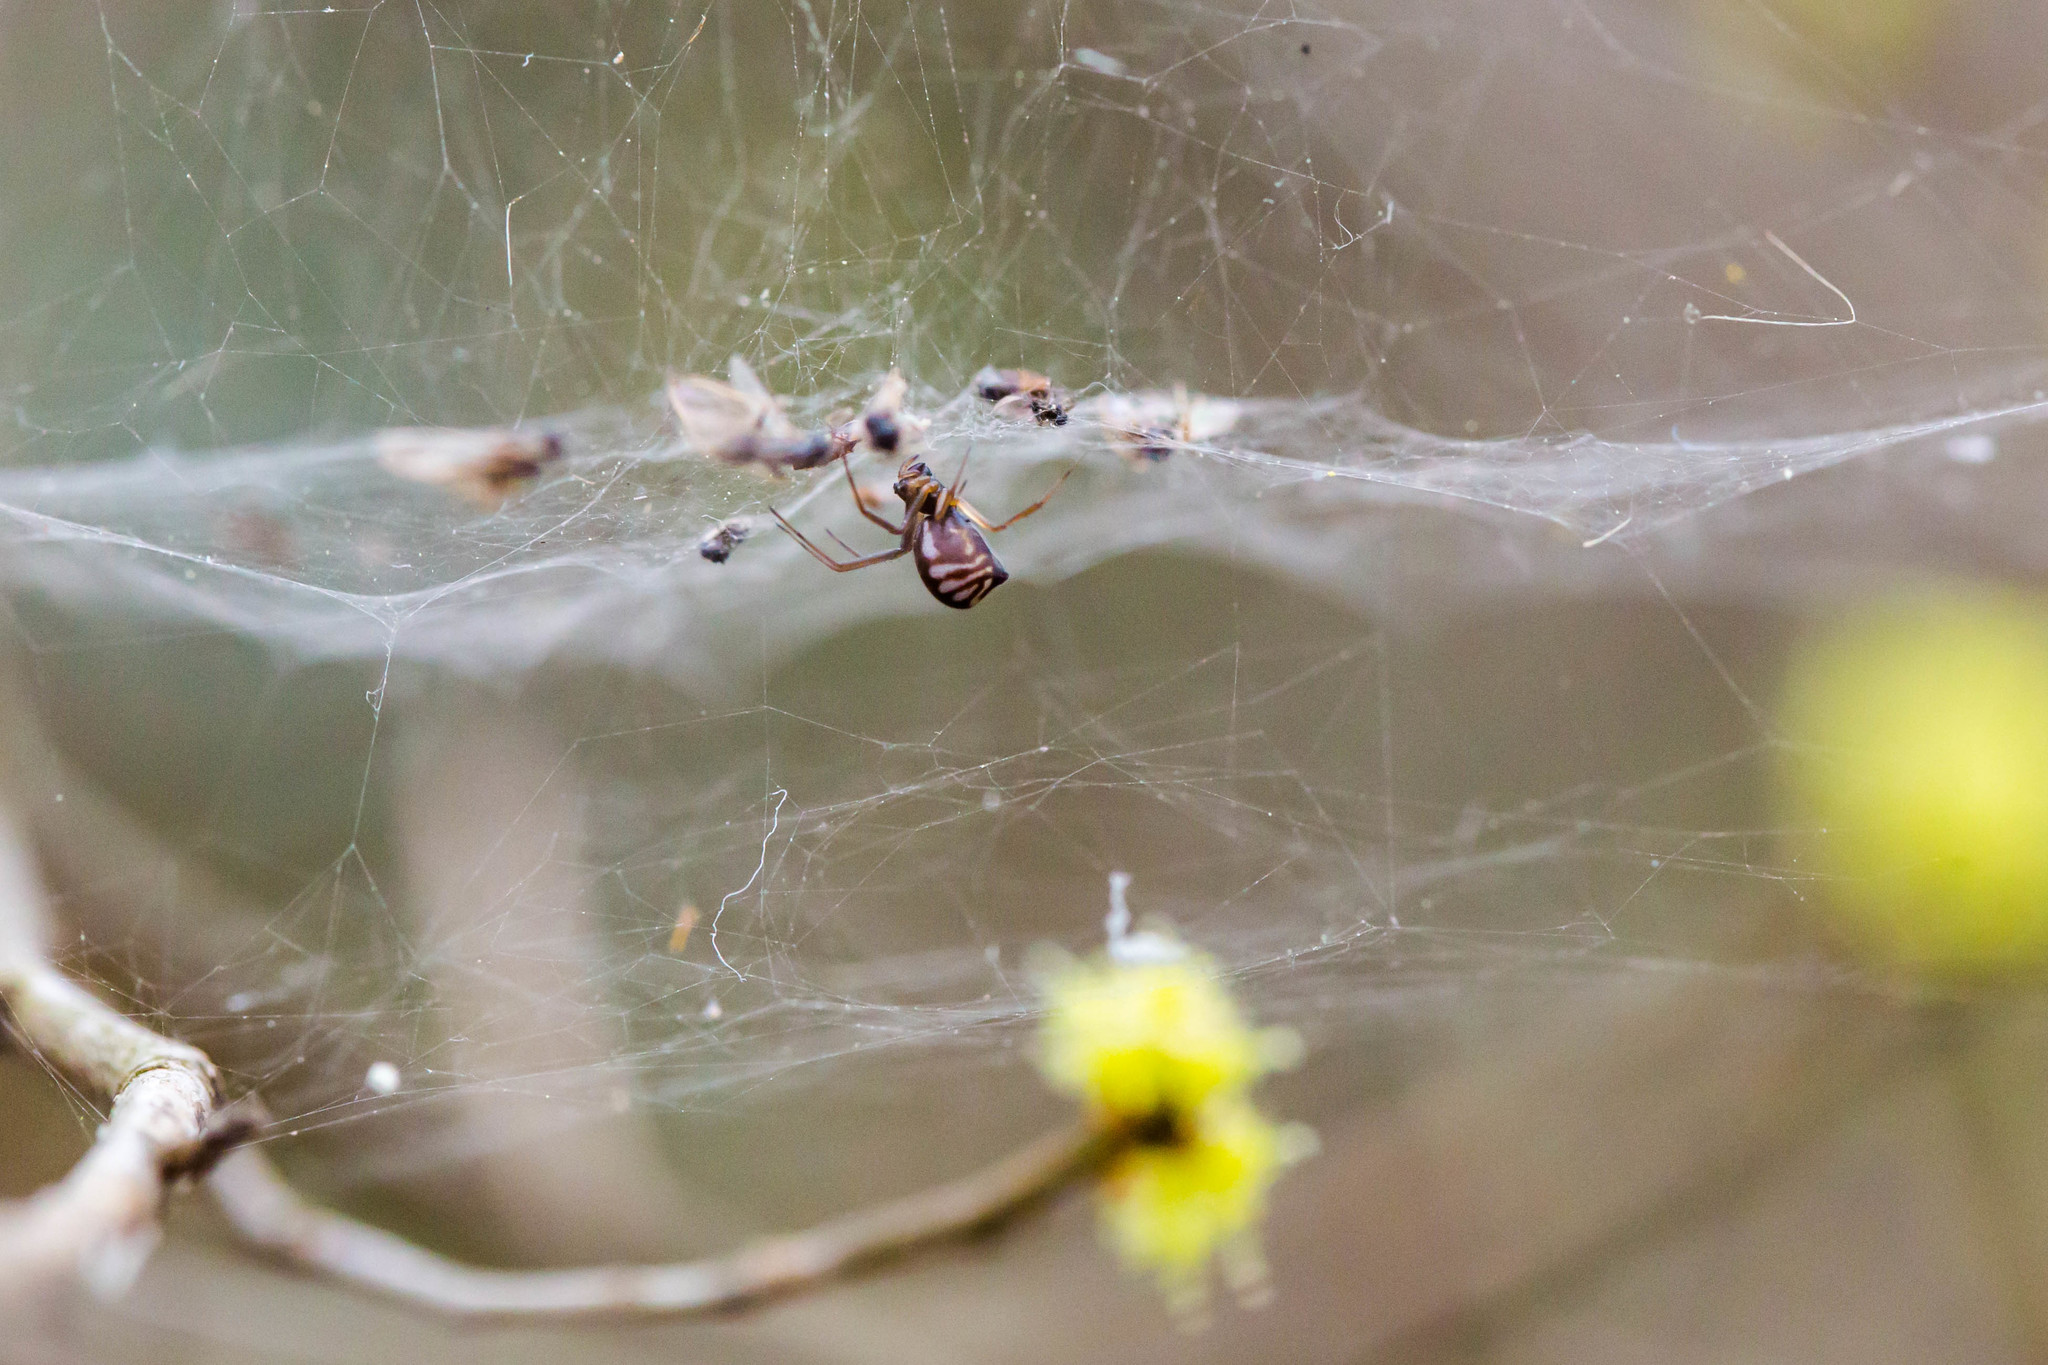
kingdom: Animalia
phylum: Arthropoda
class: Arachnida
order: Araneae
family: Linyphiidae
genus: Neriene
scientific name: Neriene radiata
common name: Filmy dome spider
